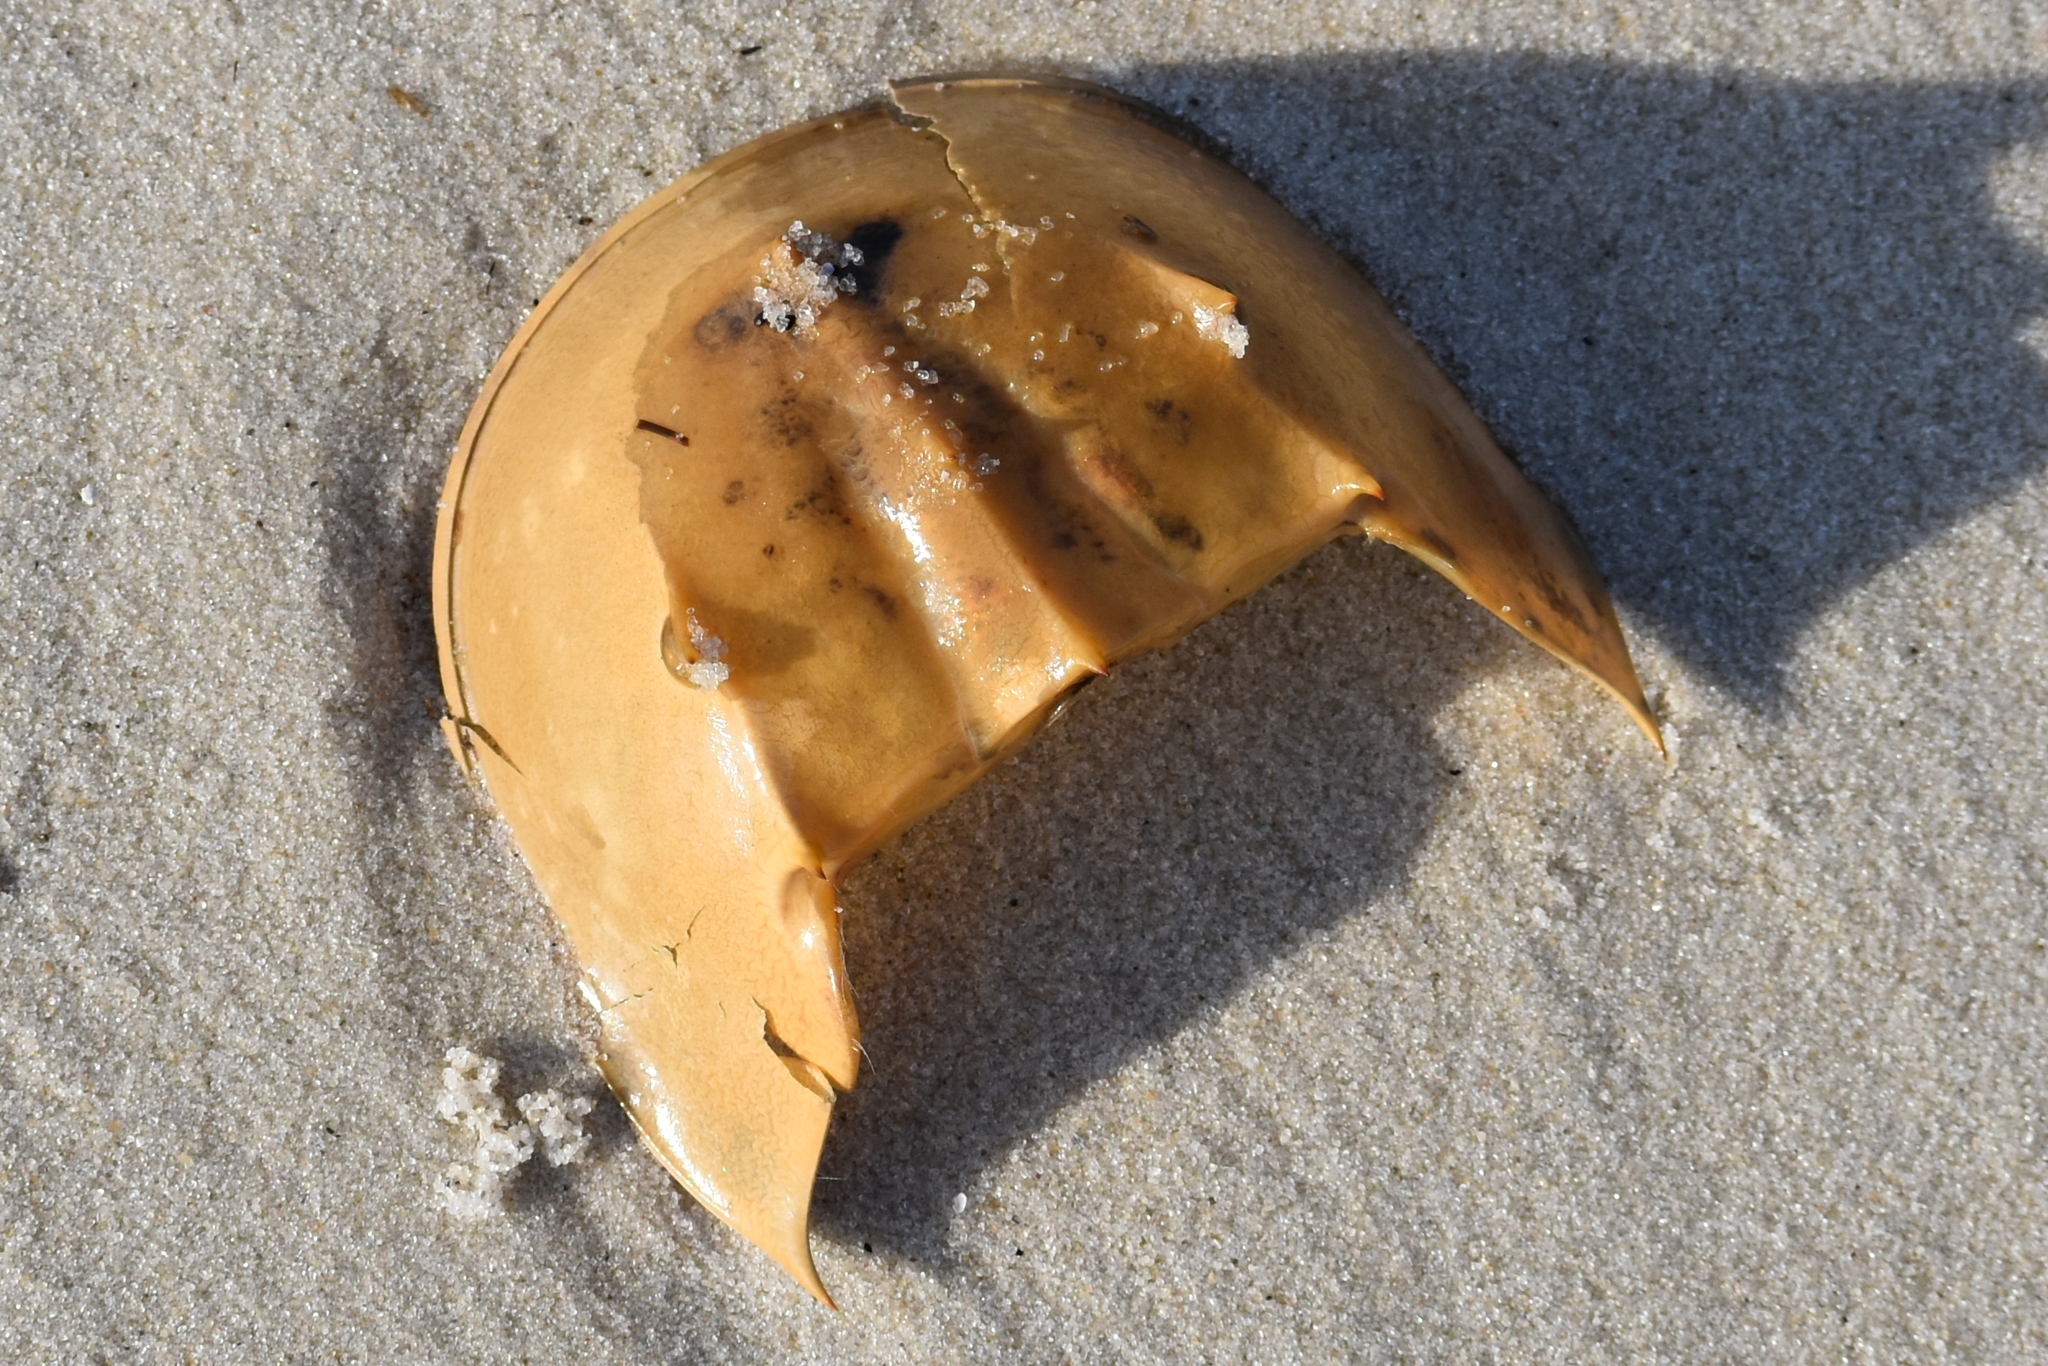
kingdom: Animalia
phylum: Arthropoda
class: Merostomata
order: Xiphosurida
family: Limulidae
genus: Limulus
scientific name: Limulus polyphemus
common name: Horseshoe crab
